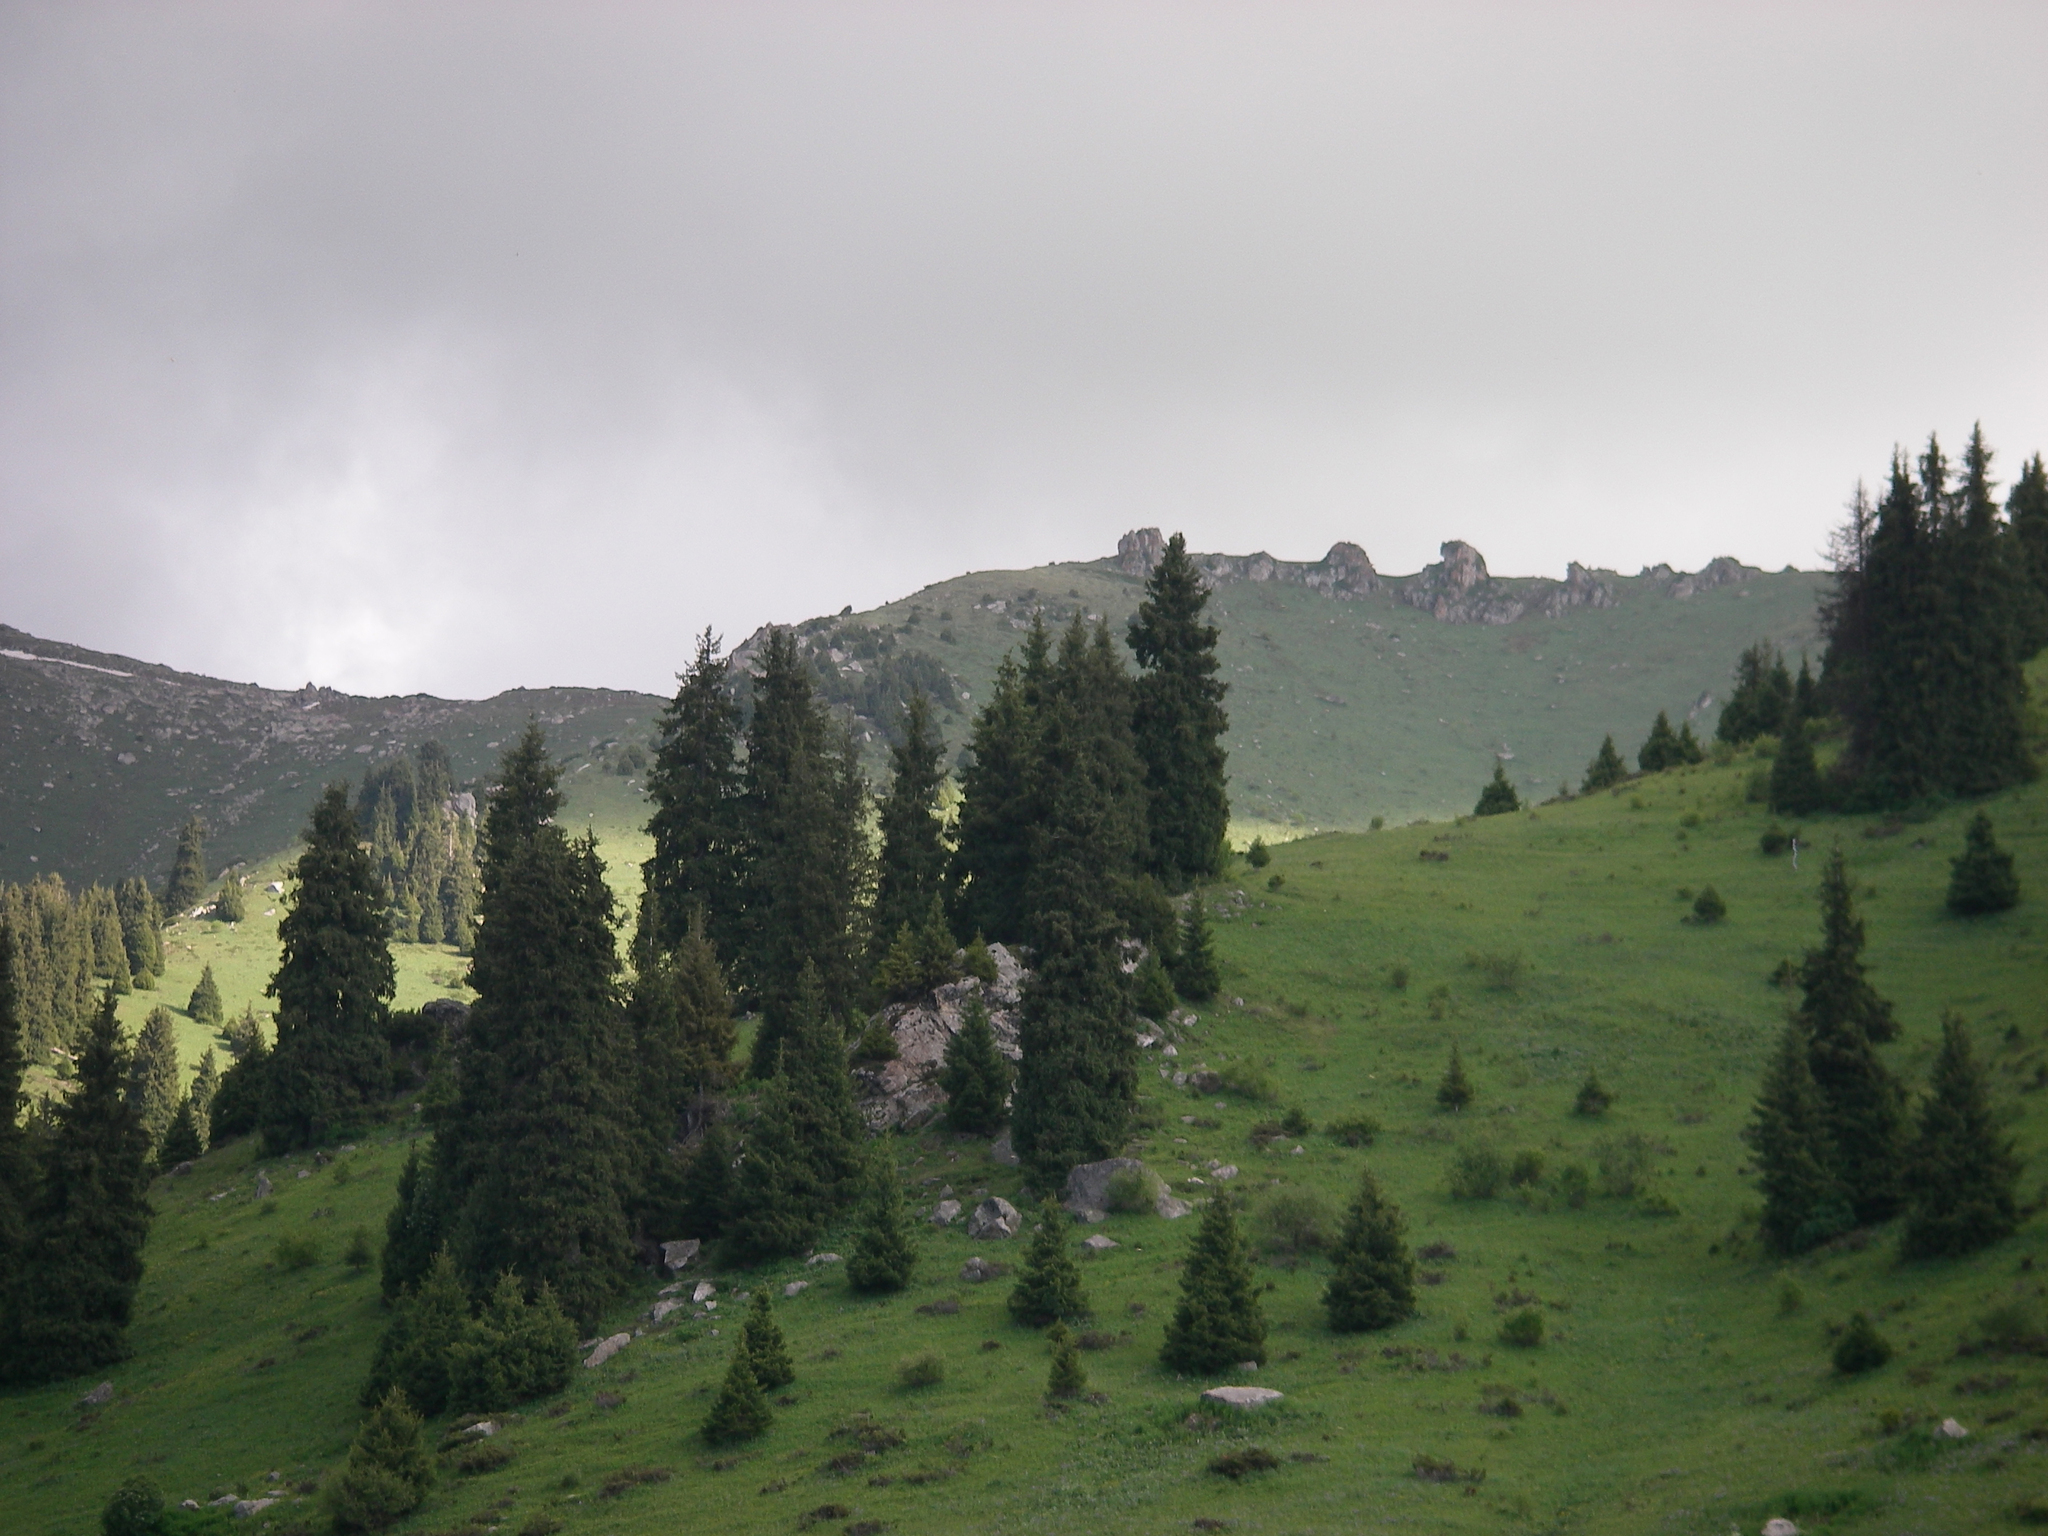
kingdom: Plantae
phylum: Tracheophyta
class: Pinopsida
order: Pinales
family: Pinaceae
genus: Picea
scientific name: Picea schrenkiana
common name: Asian spruce
